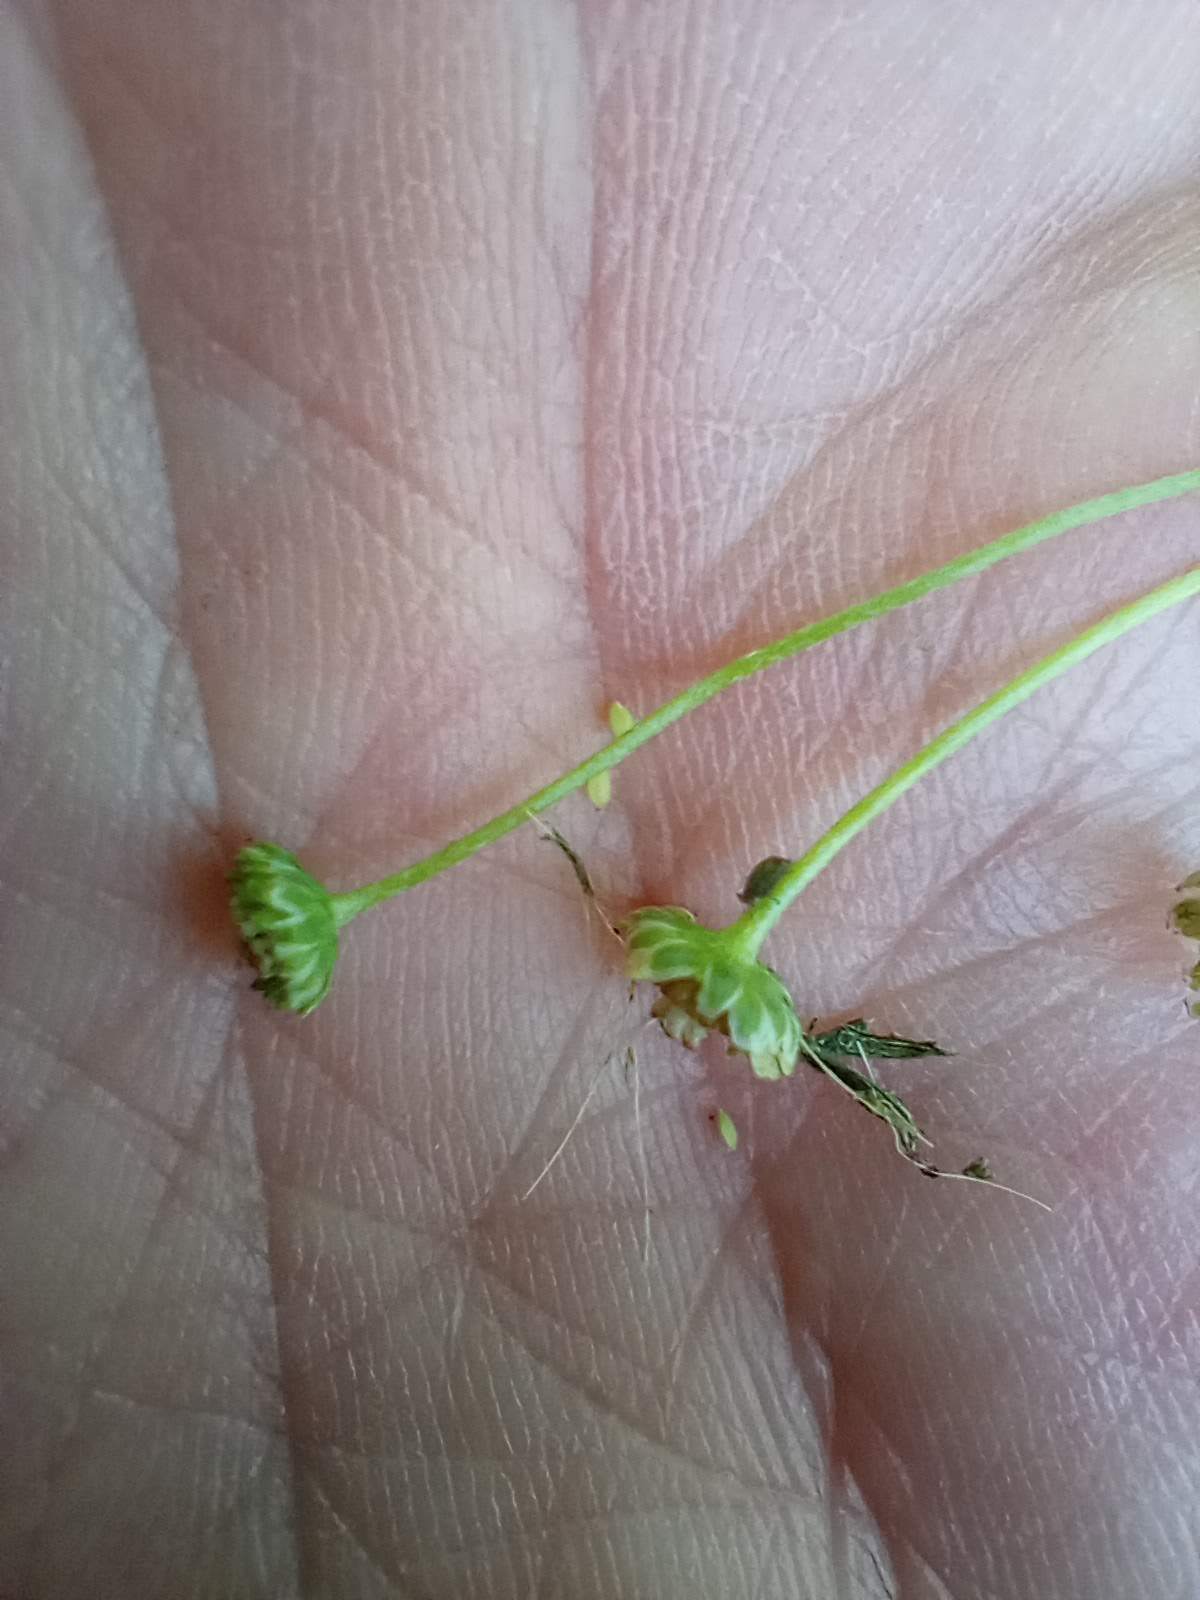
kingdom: Plantae
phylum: Tracheophyta
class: Magnoliopsida
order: Asterales
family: Asteraceae
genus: Cotula
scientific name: Cotula australis
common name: Australian waterbuttons
